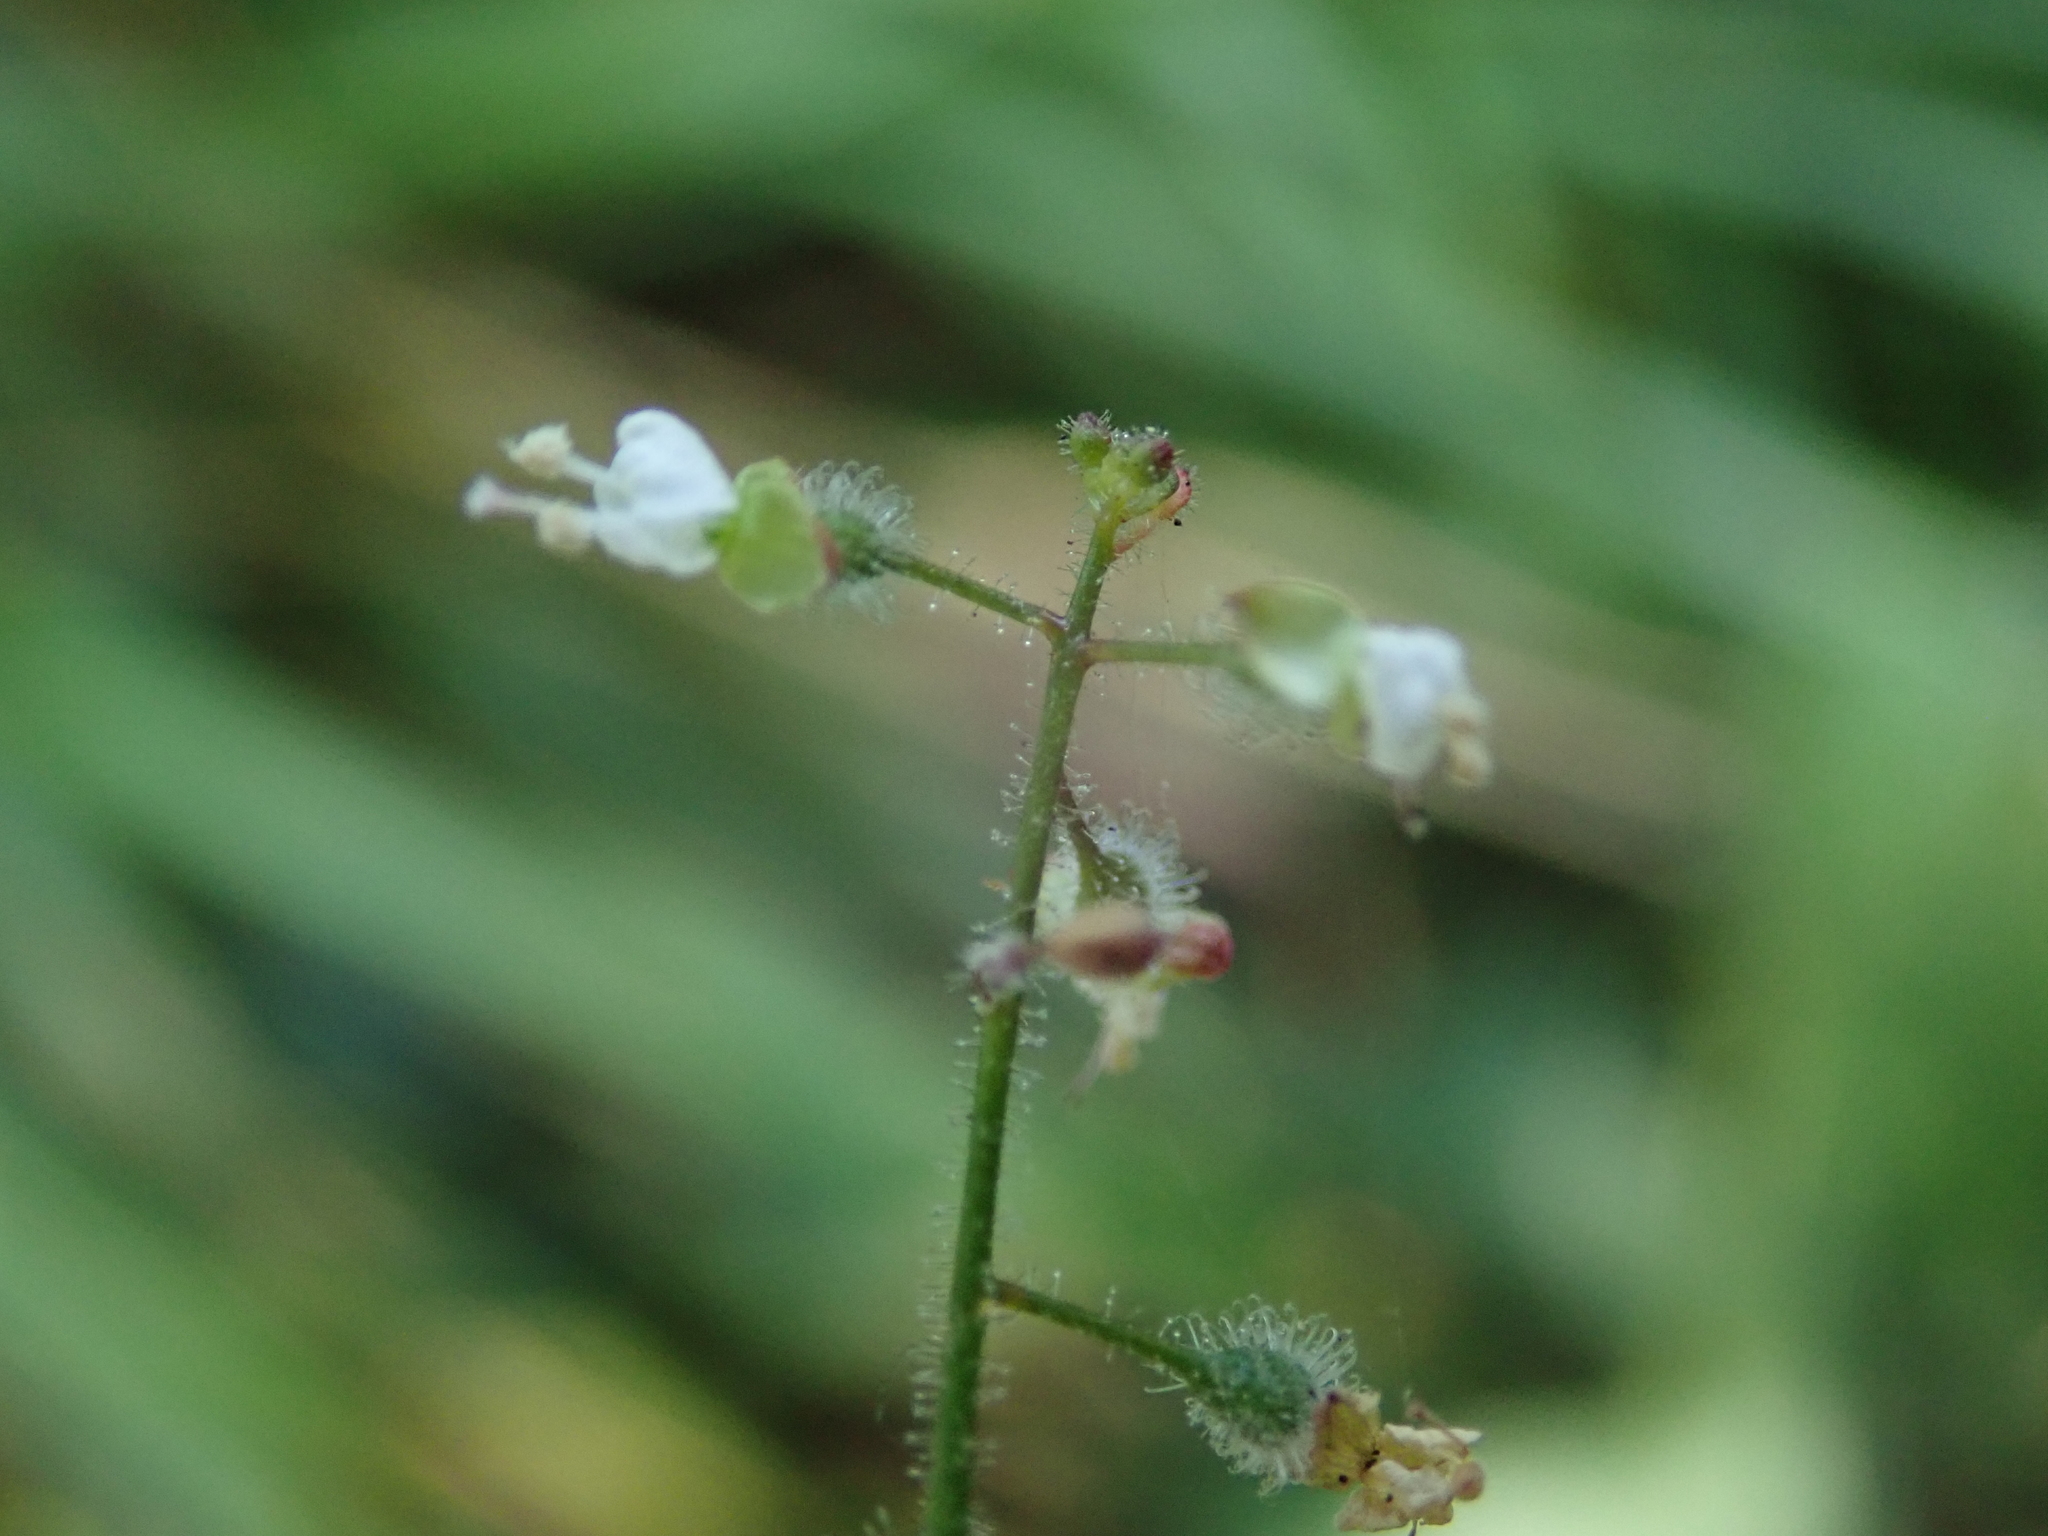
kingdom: Plantae
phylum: Tracheophyta
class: Magnoliopsida
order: Myrtales
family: Onagraceae
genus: Circaea
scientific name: Circaea lutetiana
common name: Enchanter's-nightshade
